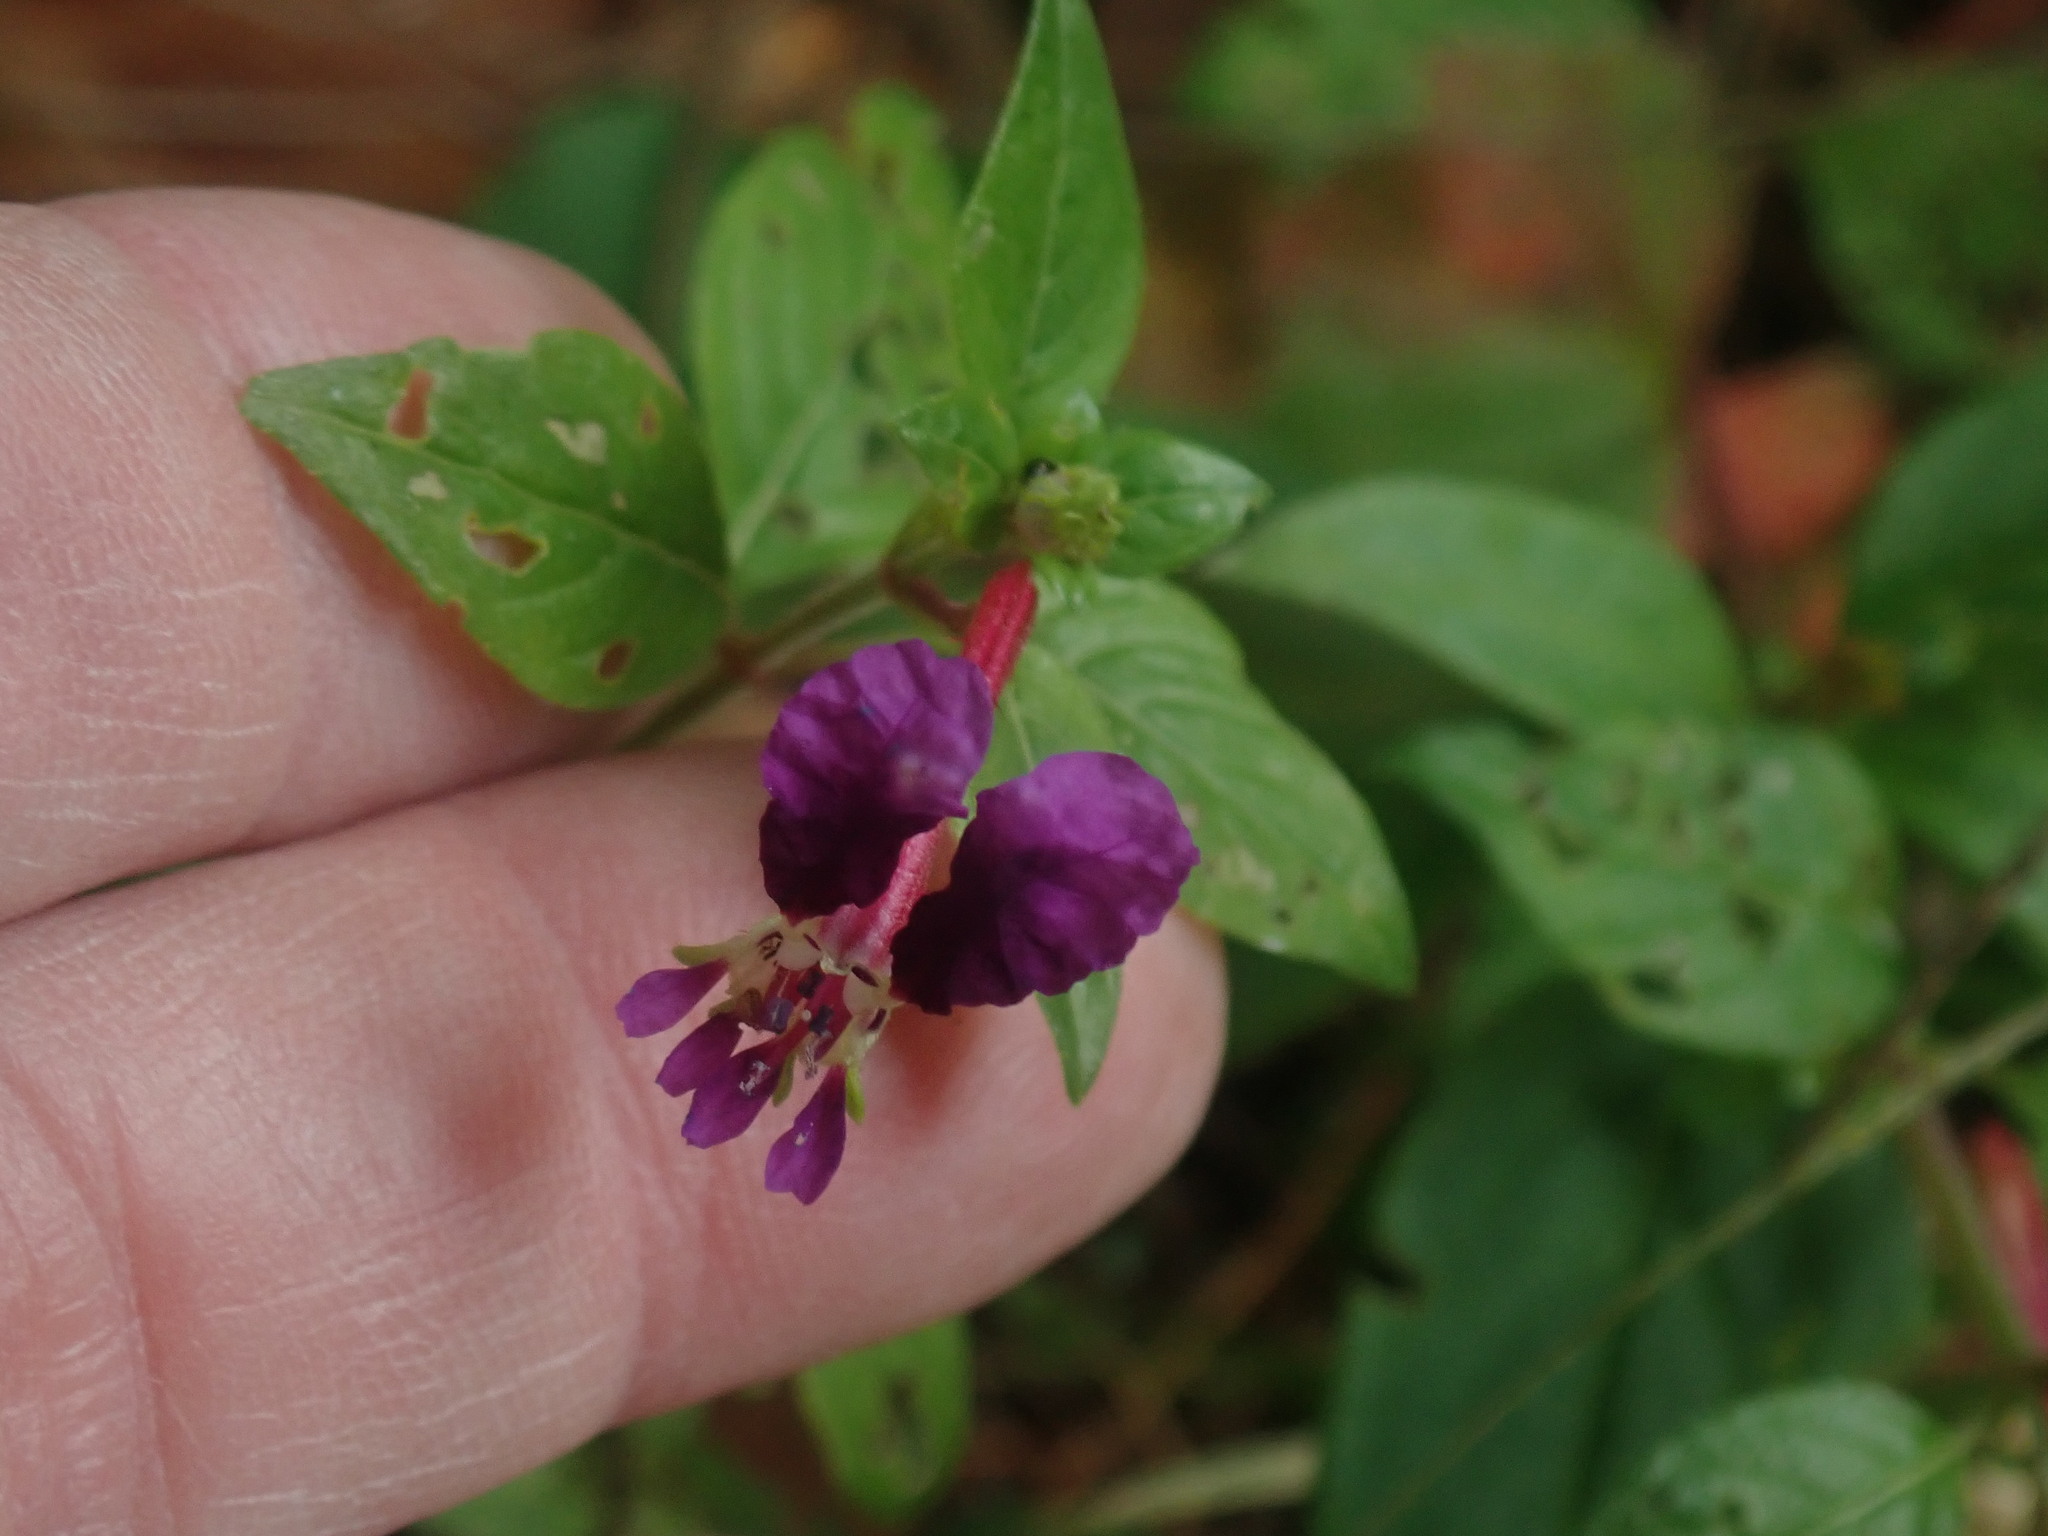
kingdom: Plantae
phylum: Tracheophyta
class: Magnoliopsida
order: Myrtales
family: Lythraceae
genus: Cuphea
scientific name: Cuphea calaminthifolia
